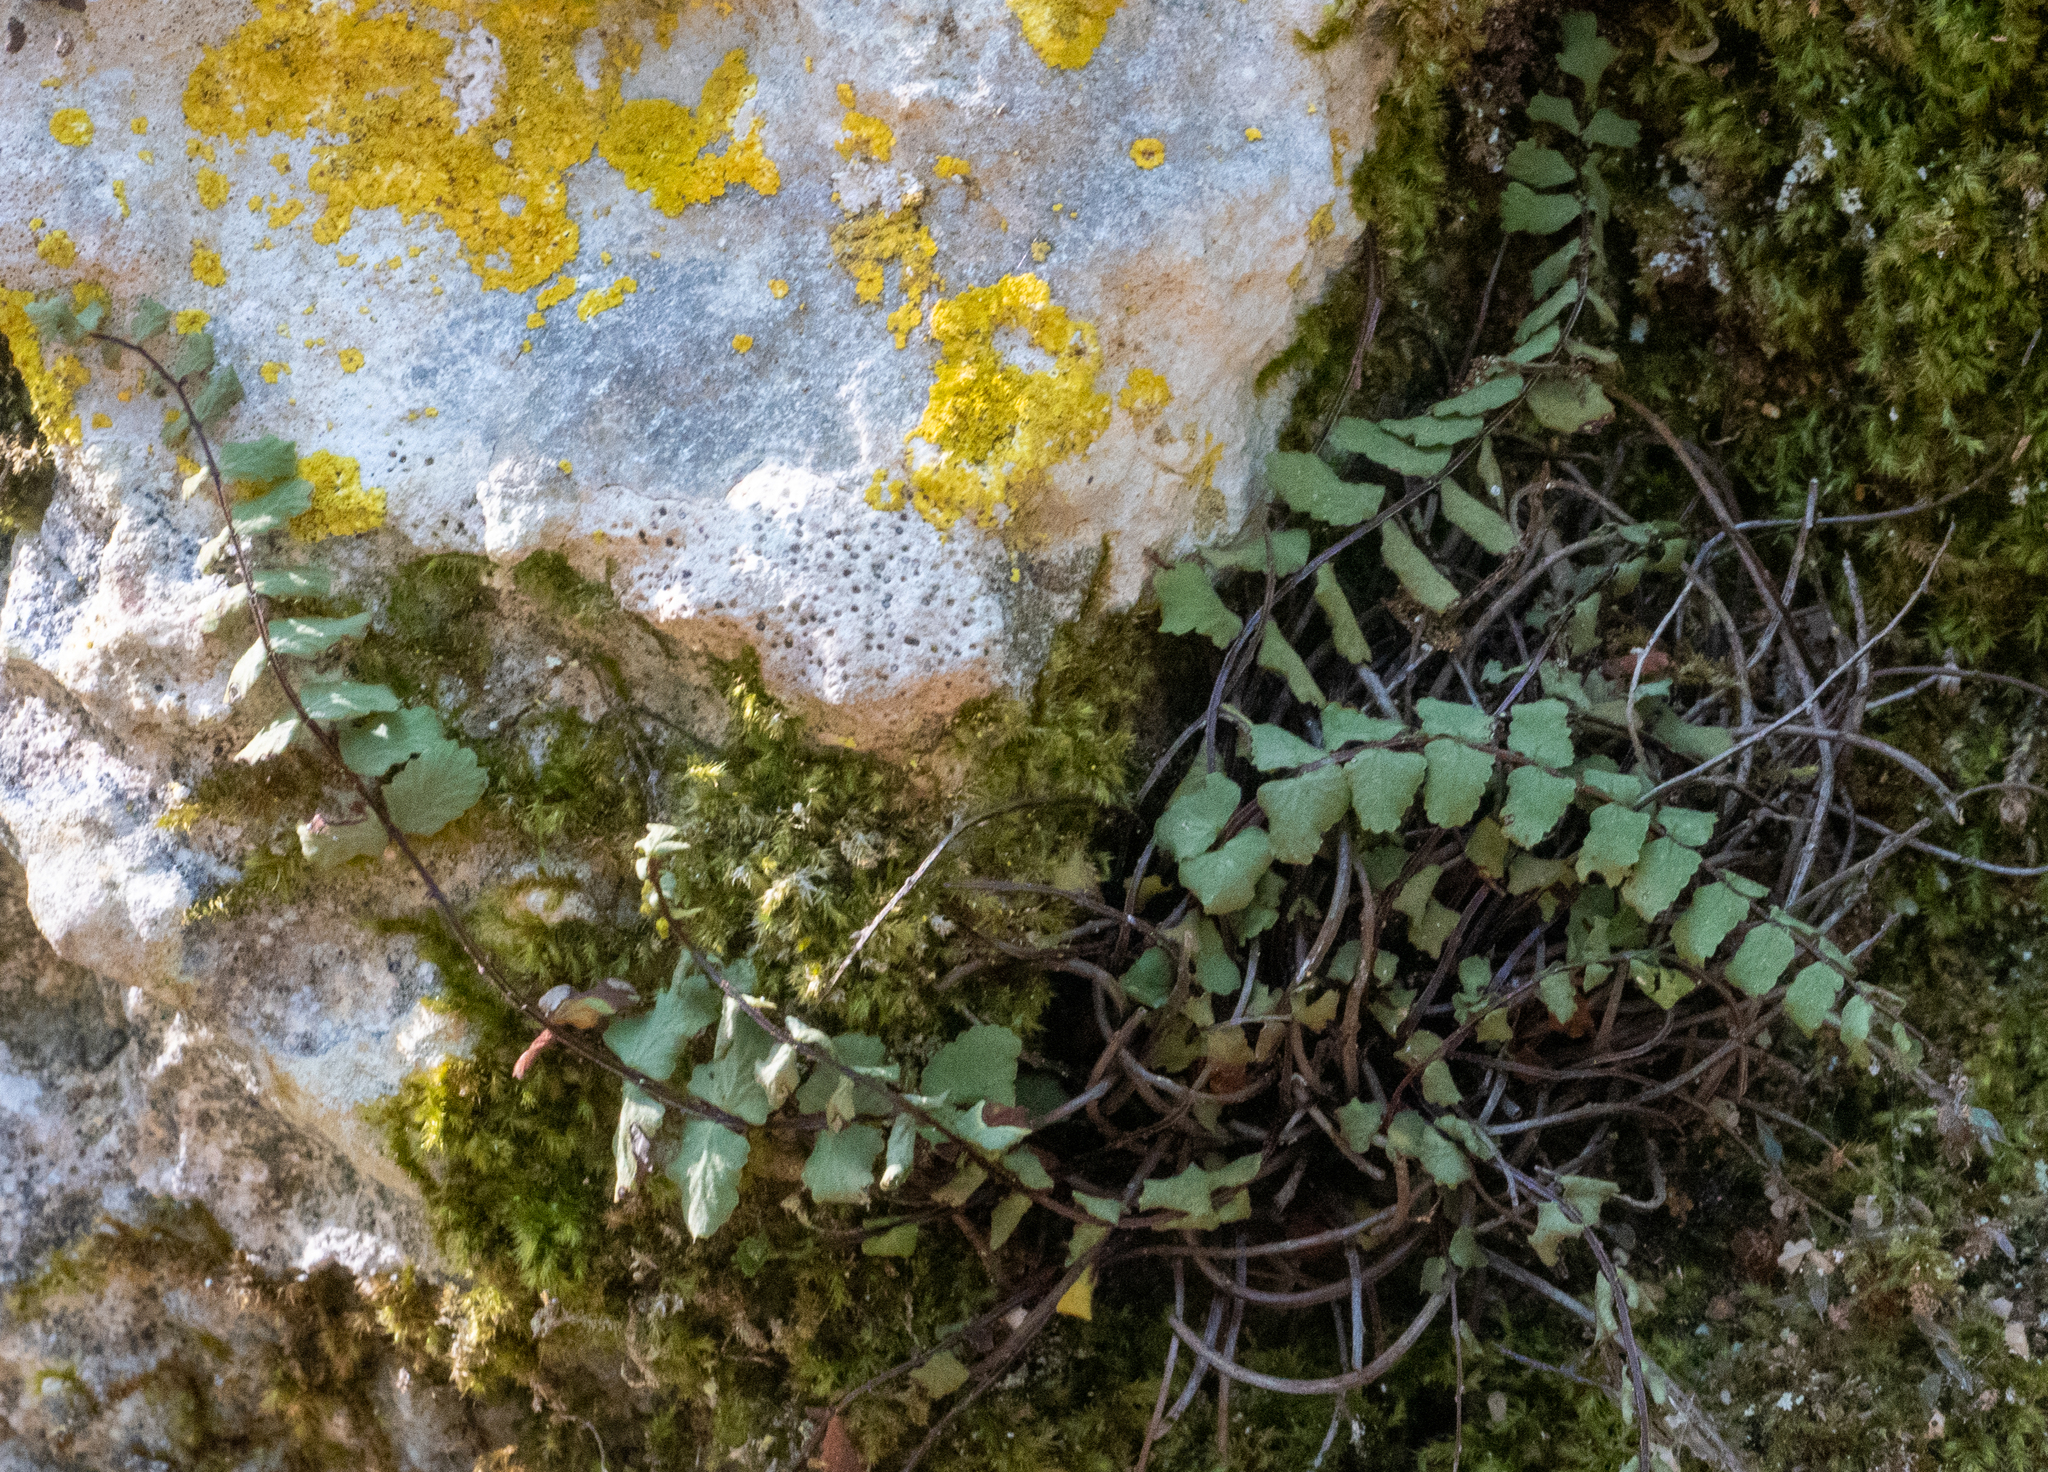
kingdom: Plantae
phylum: Tracheophyta
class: Polypodiopsida
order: Polypodiales
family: Aspleniaceae
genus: Asplenium
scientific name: Asplenium trichomanes
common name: Maidenhair spleenwort
